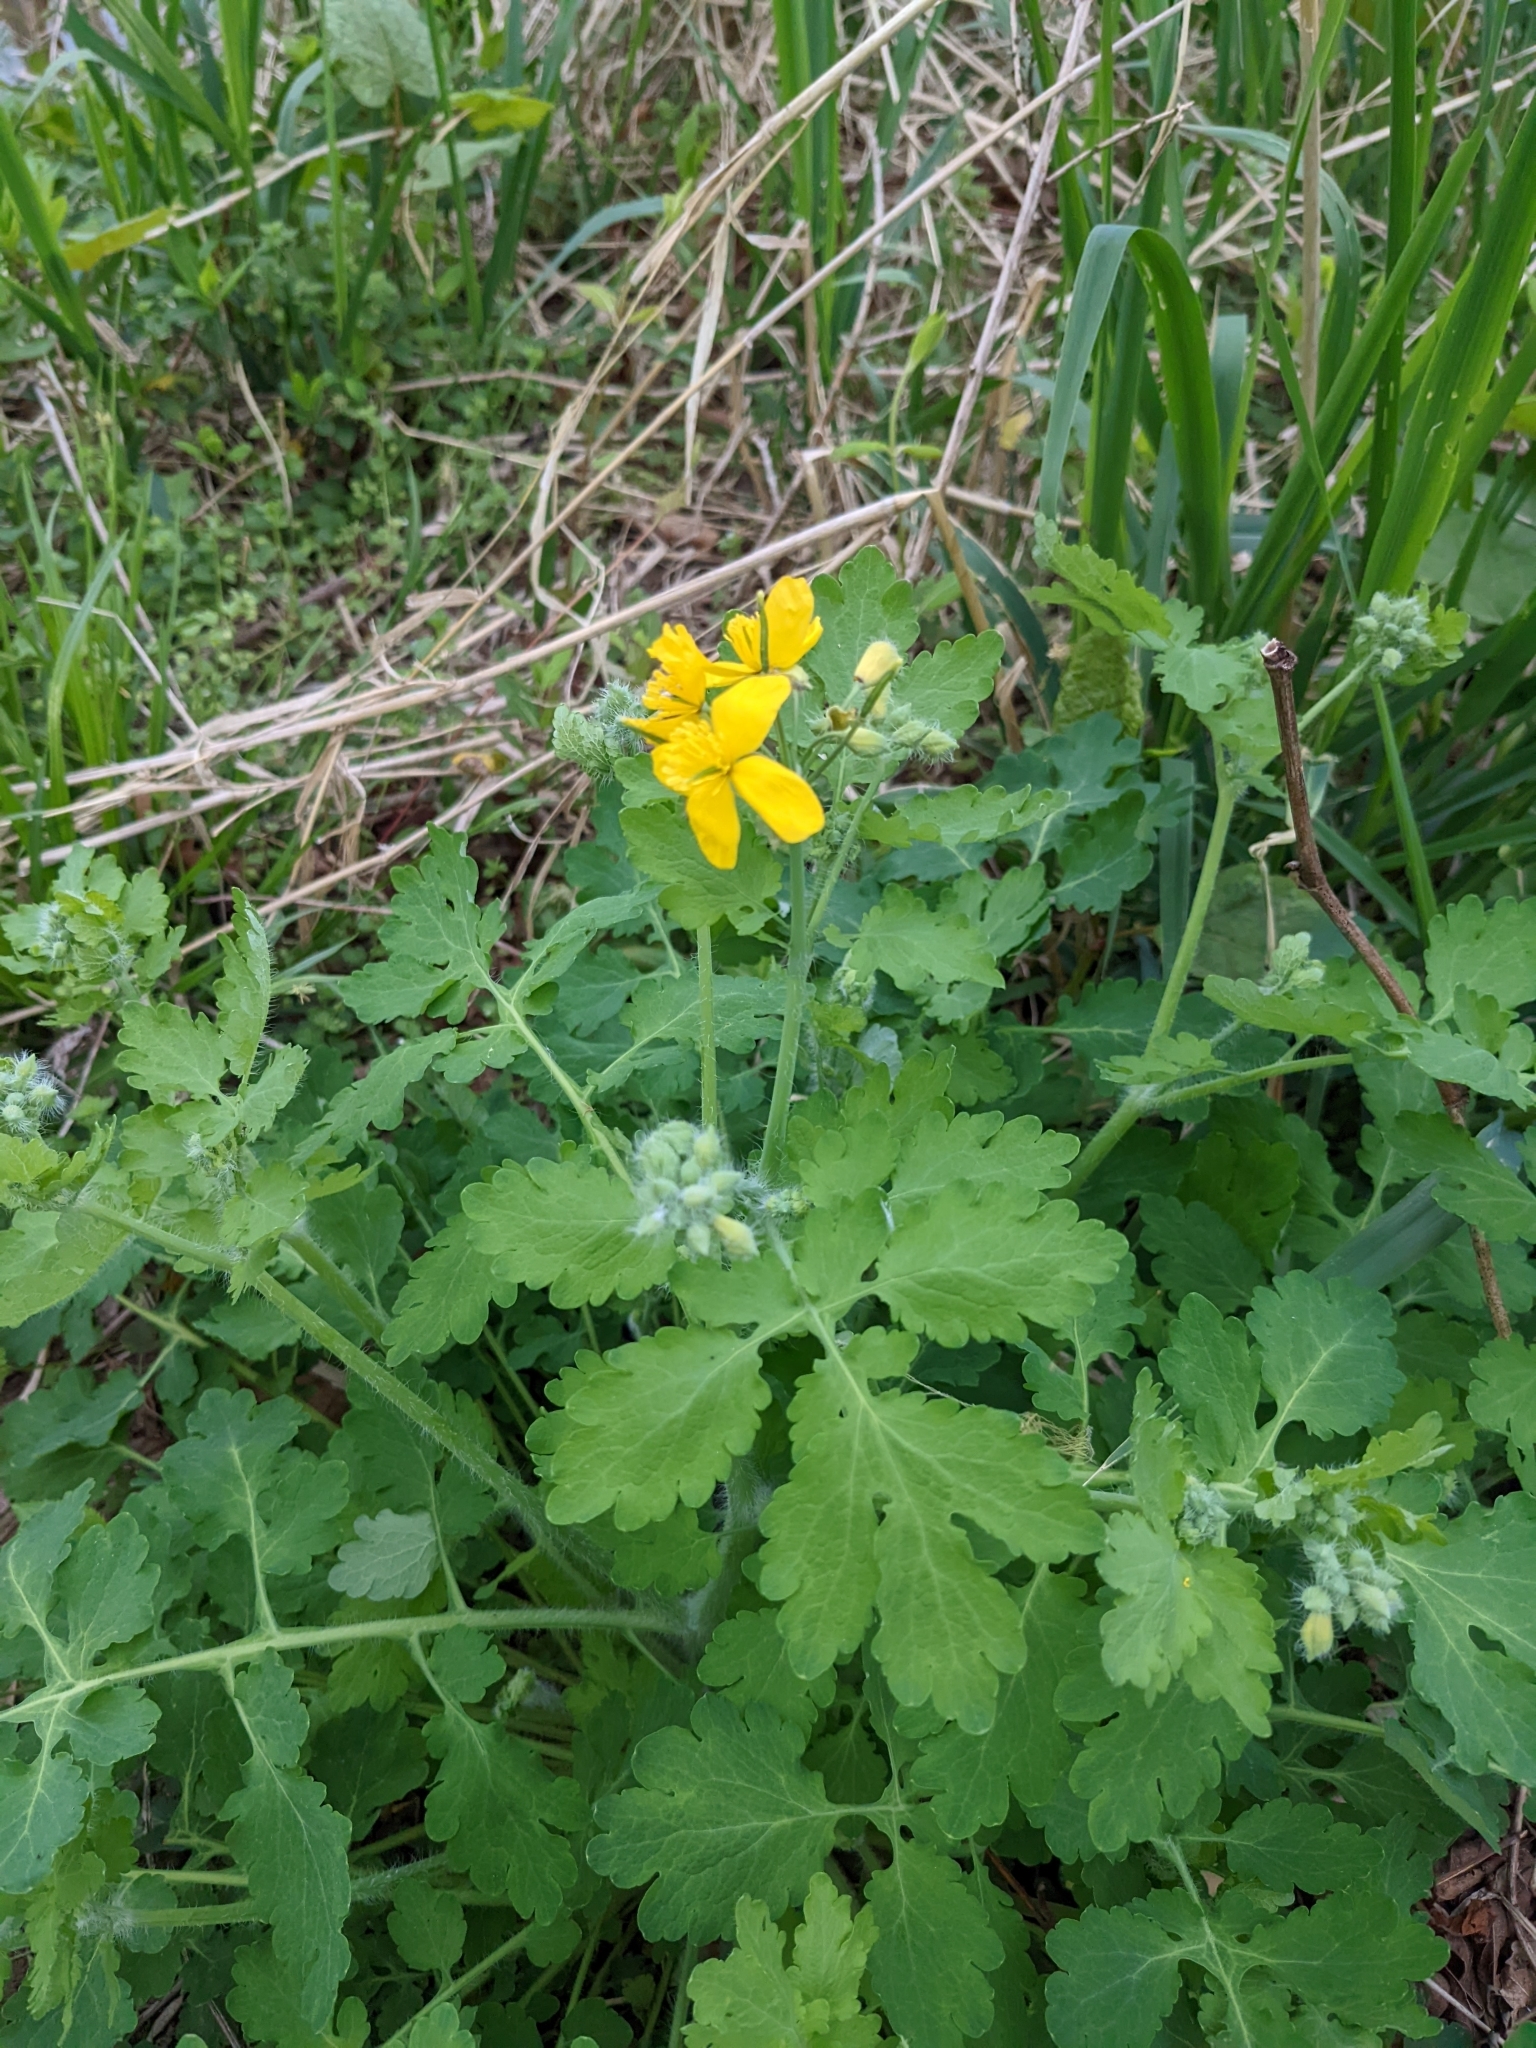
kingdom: Plantae
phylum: Tracheophyta
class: Magnoliopsida
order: Ranunculales
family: Papaveraceae
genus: Chelidonium
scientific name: Chelidonium majus
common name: Greater celandine
